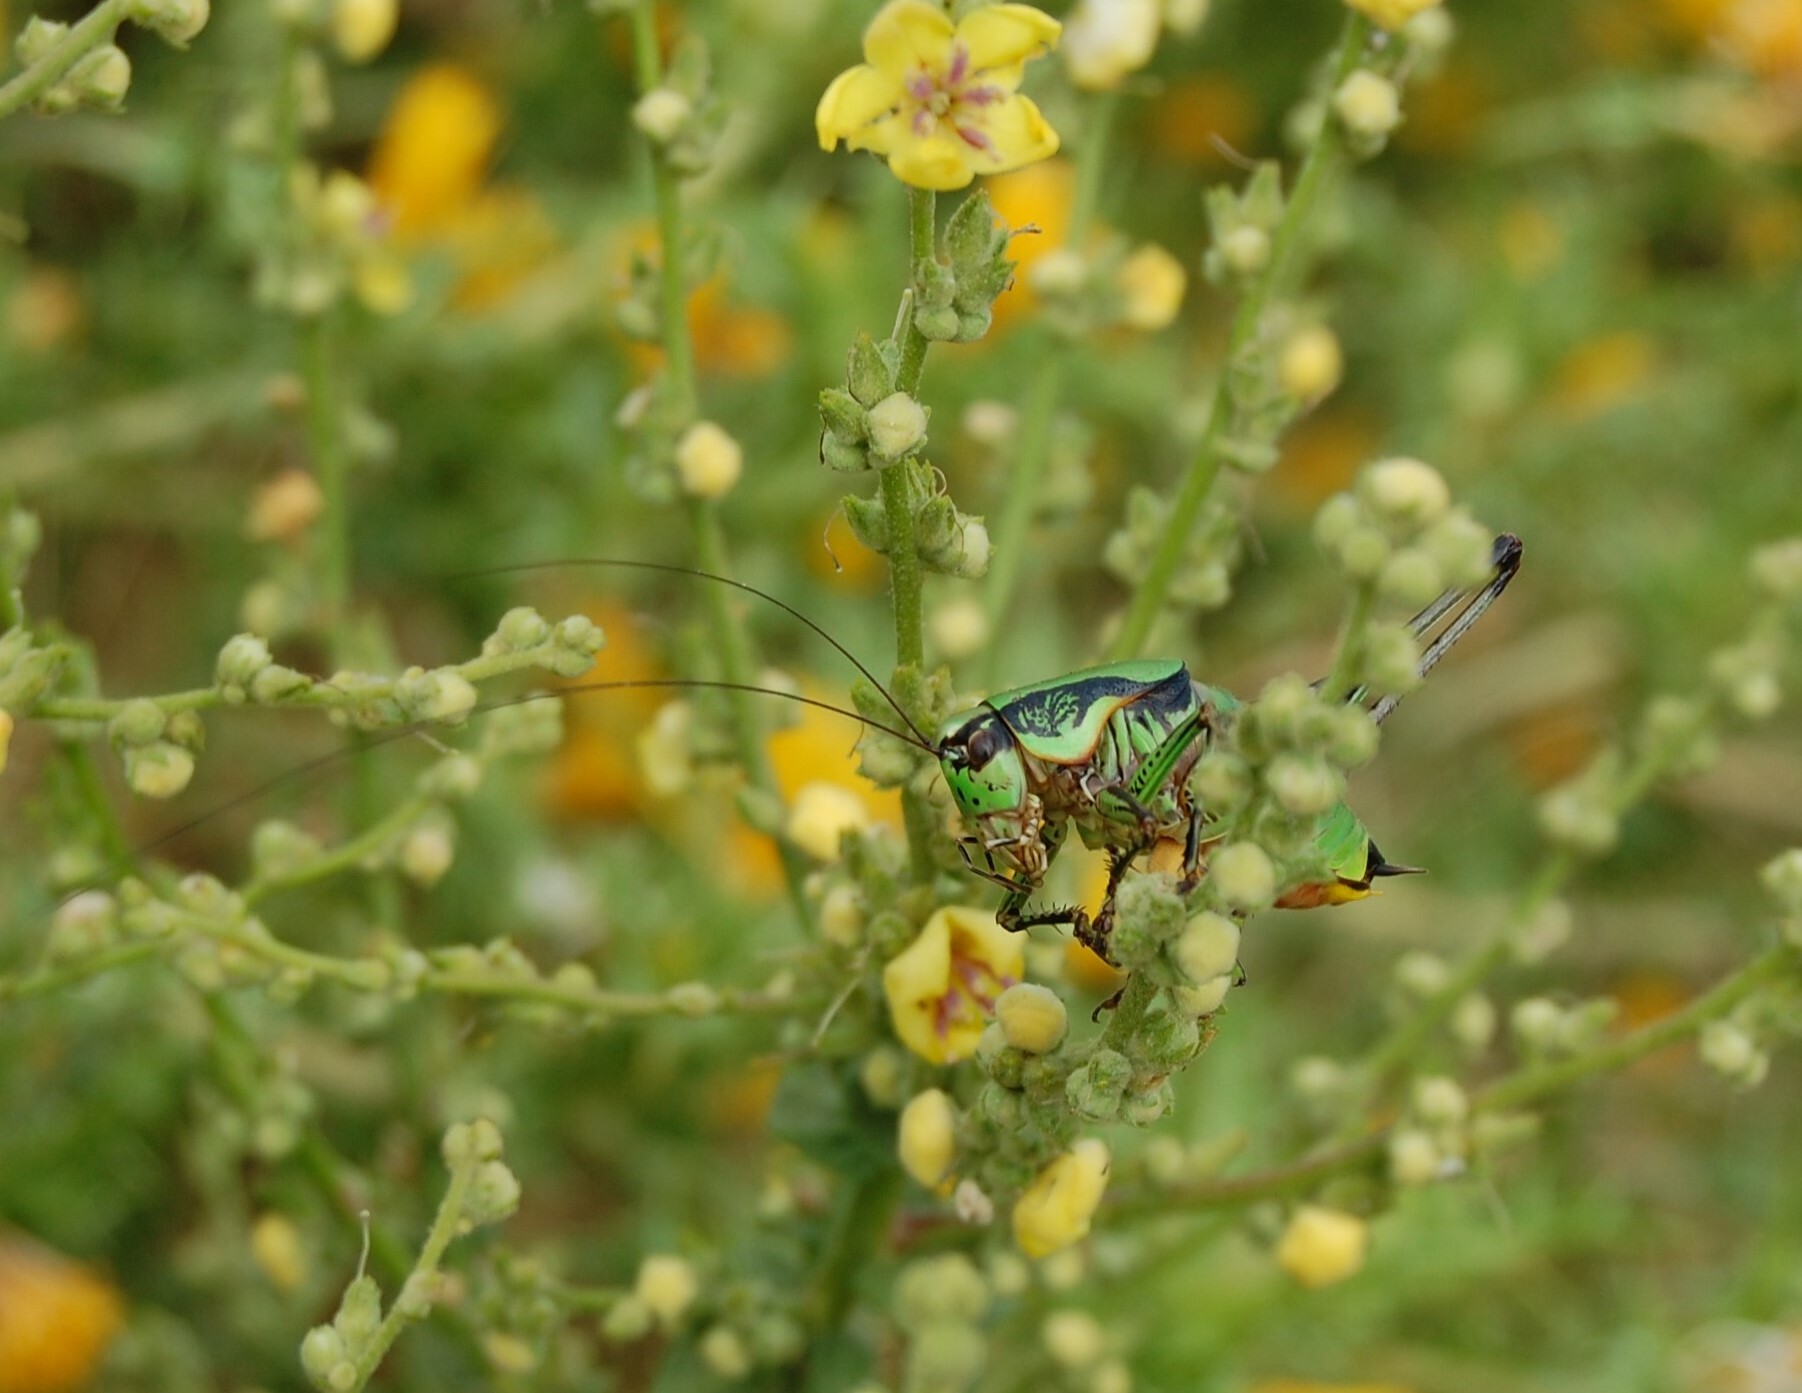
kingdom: Animalia
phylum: Arthropoda
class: Insecta
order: Orthoptera
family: Tettigoniidae
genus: Eupholidoptera
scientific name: Eupholidoptera garganica
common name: Gargano marbled bush-cricket
